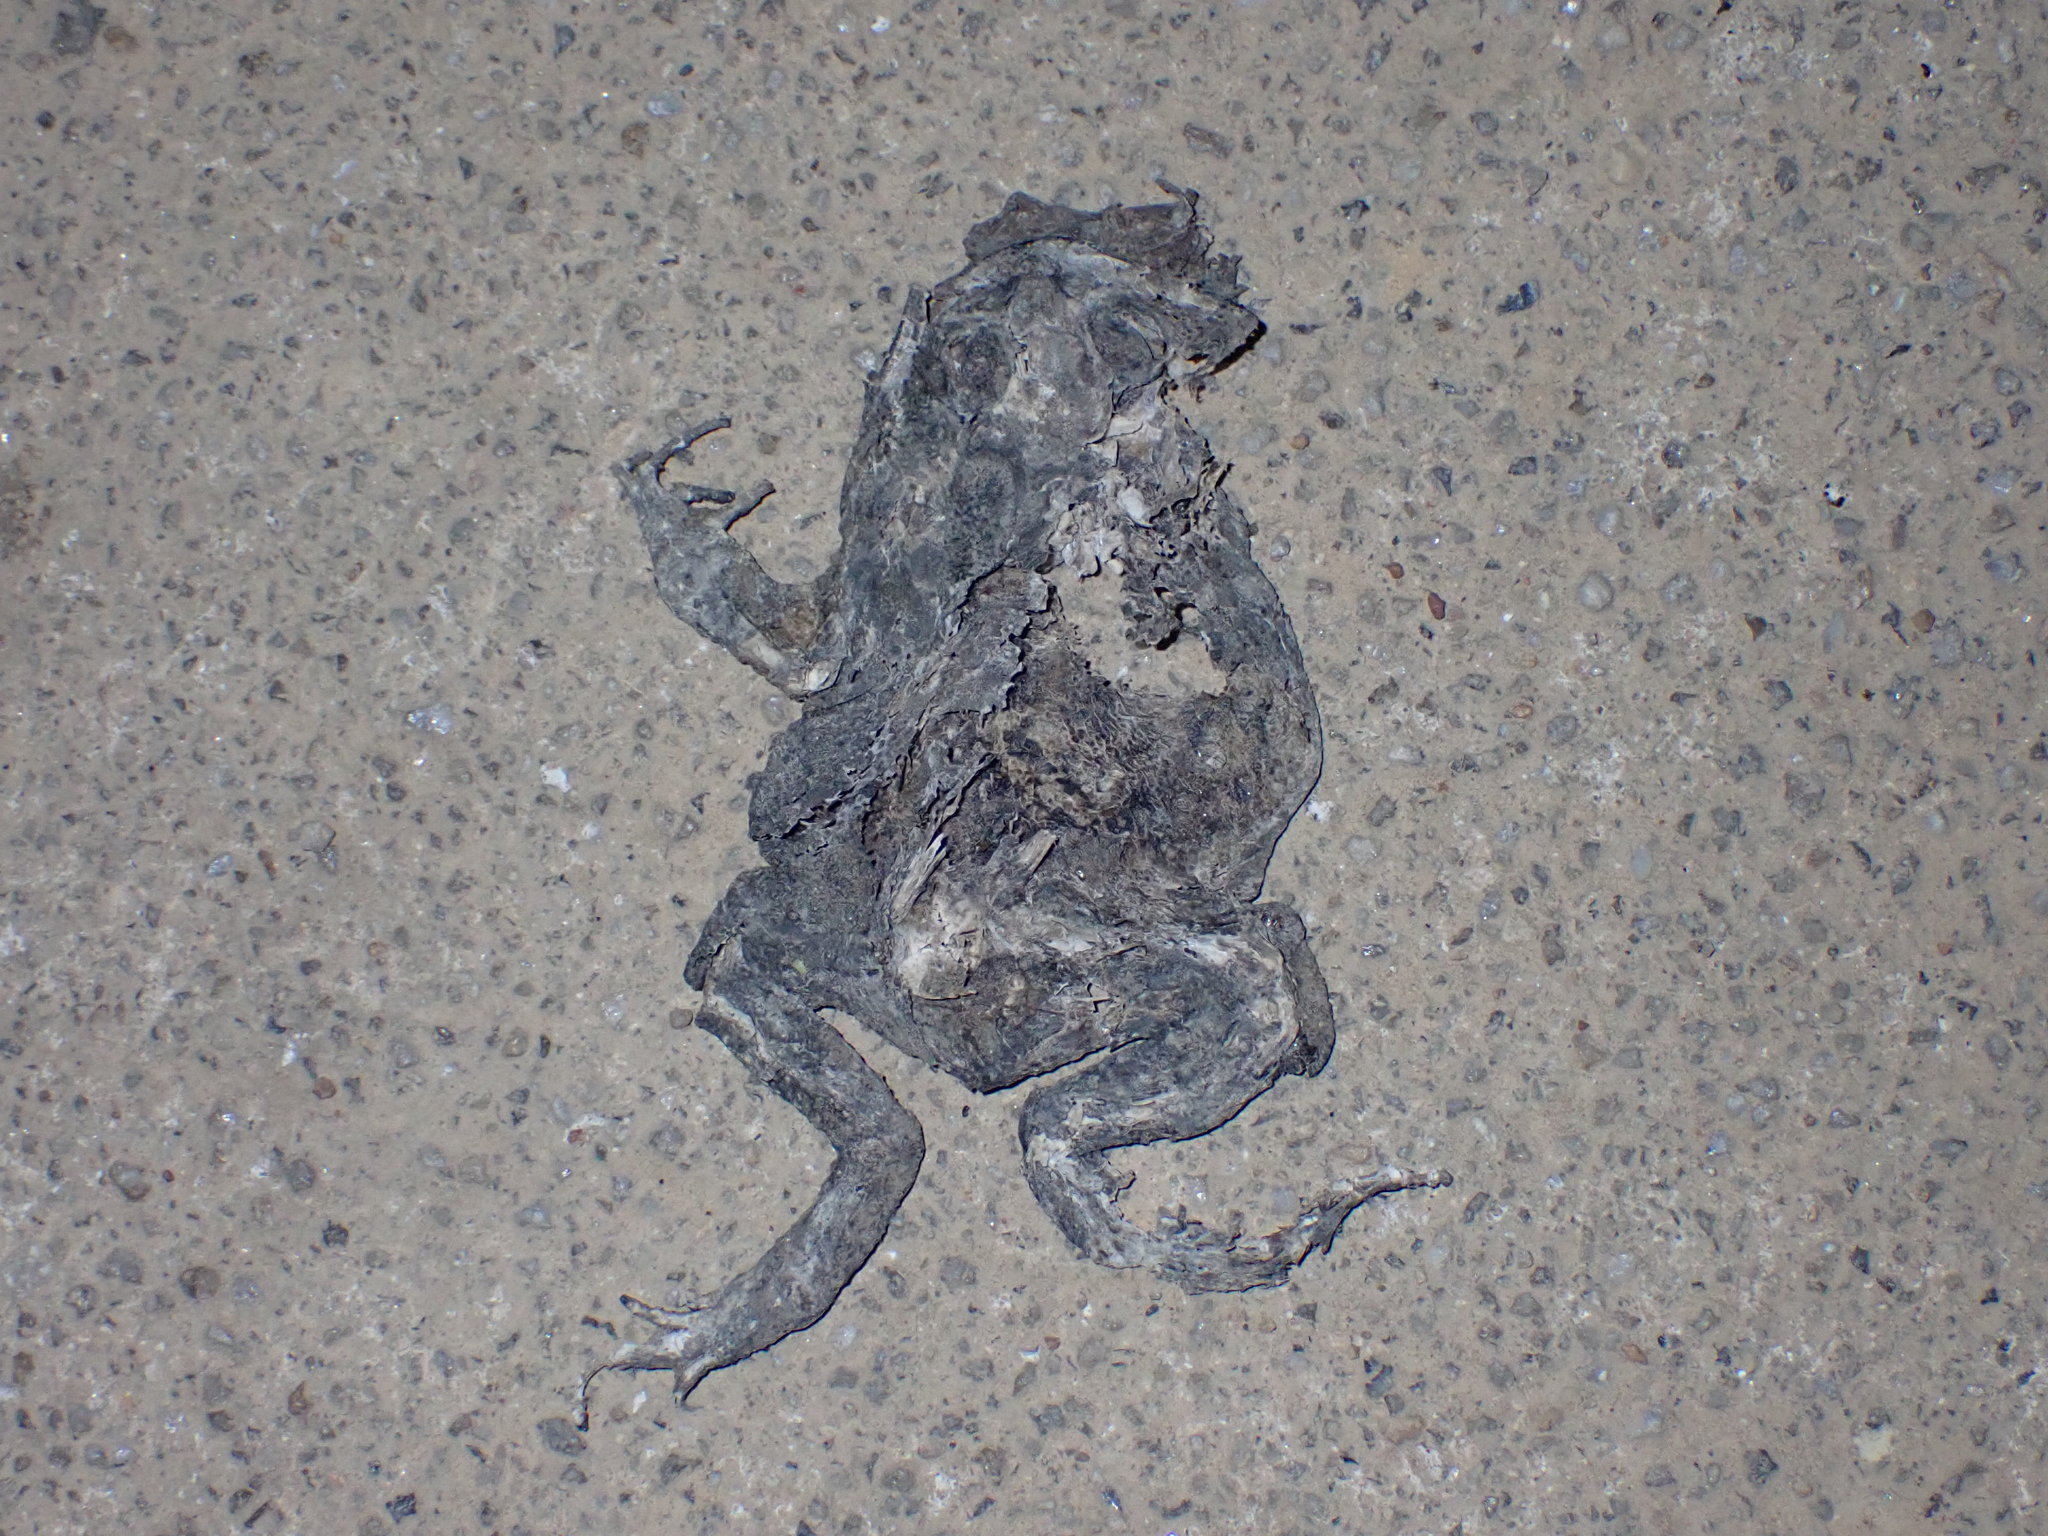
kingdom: Animalia
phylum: Chordata
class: Amphibia
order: Anura
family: Bufonidae
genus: Duttaphrynus
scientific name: Duttaphrynus melanostictus
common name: Common sunda toad
